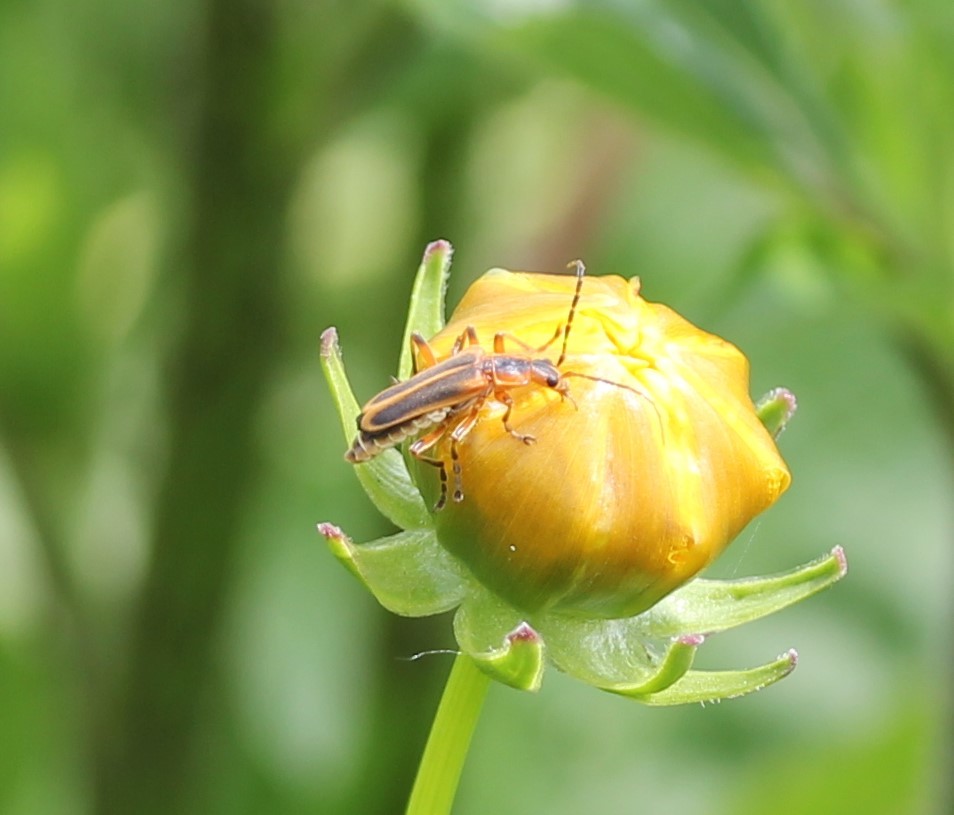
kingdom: Animalia
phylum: Arthropoda
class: Insecta
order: Coleoptera
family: Cantharidae
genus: Chauliognathus
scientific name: Chauliognathus marginatus
